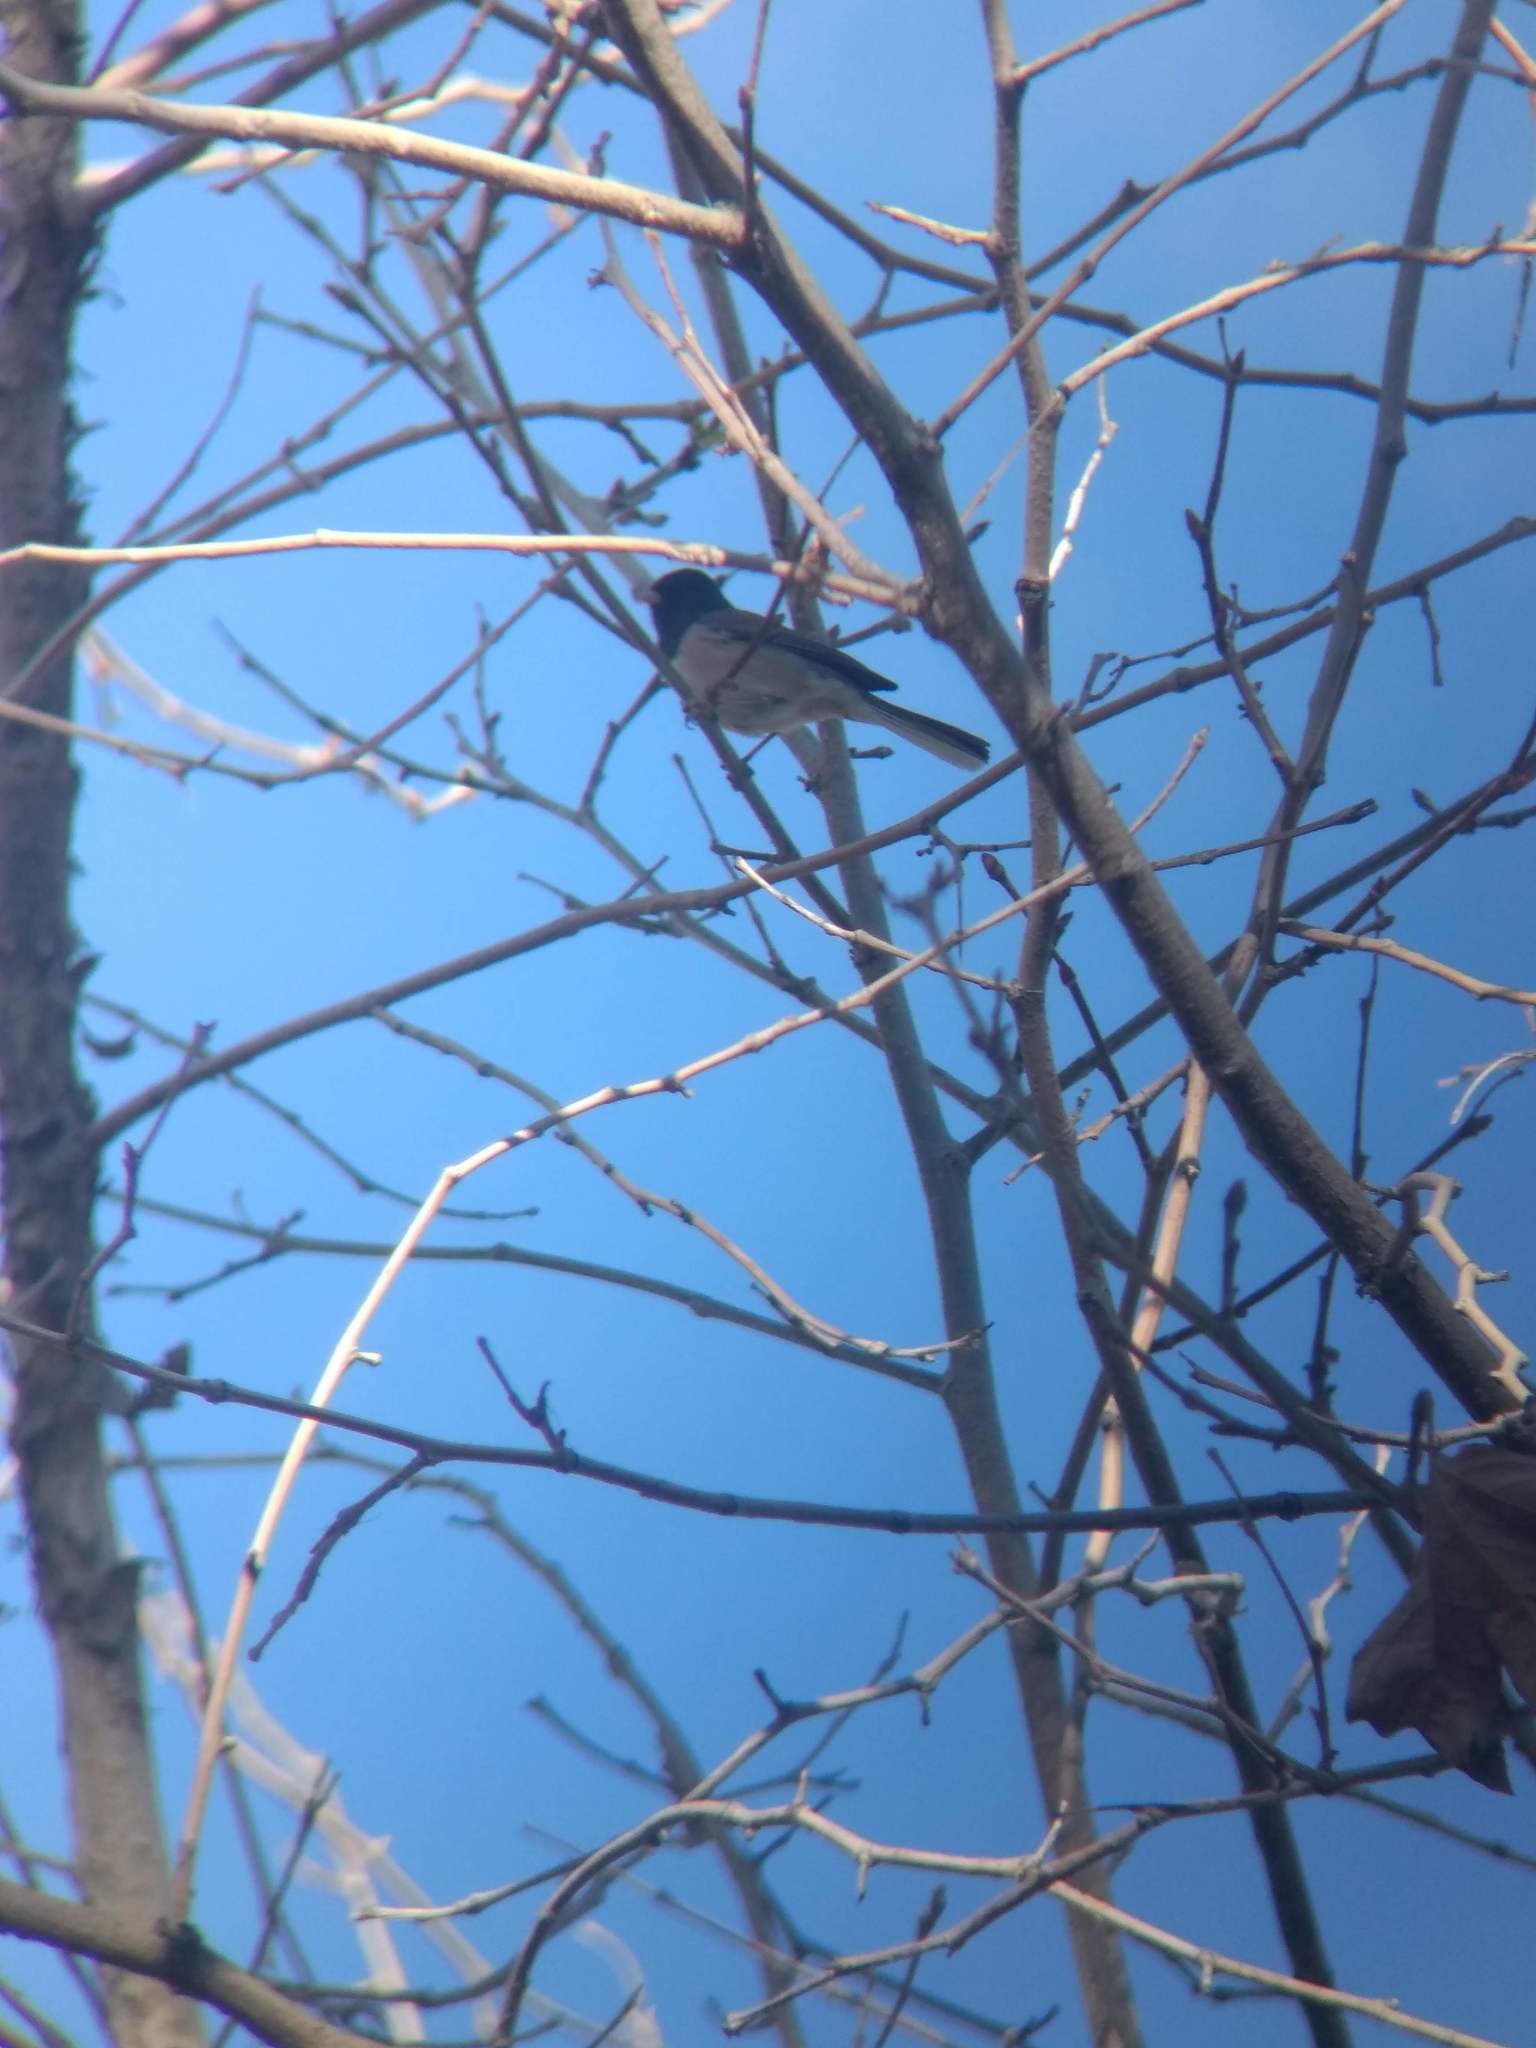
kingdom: Animalia
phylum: Chordata
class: Aves
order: Passeriformes
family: Passerellidae
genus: Junco
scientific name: Junco hyemalis
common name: Dark-eyed junco
